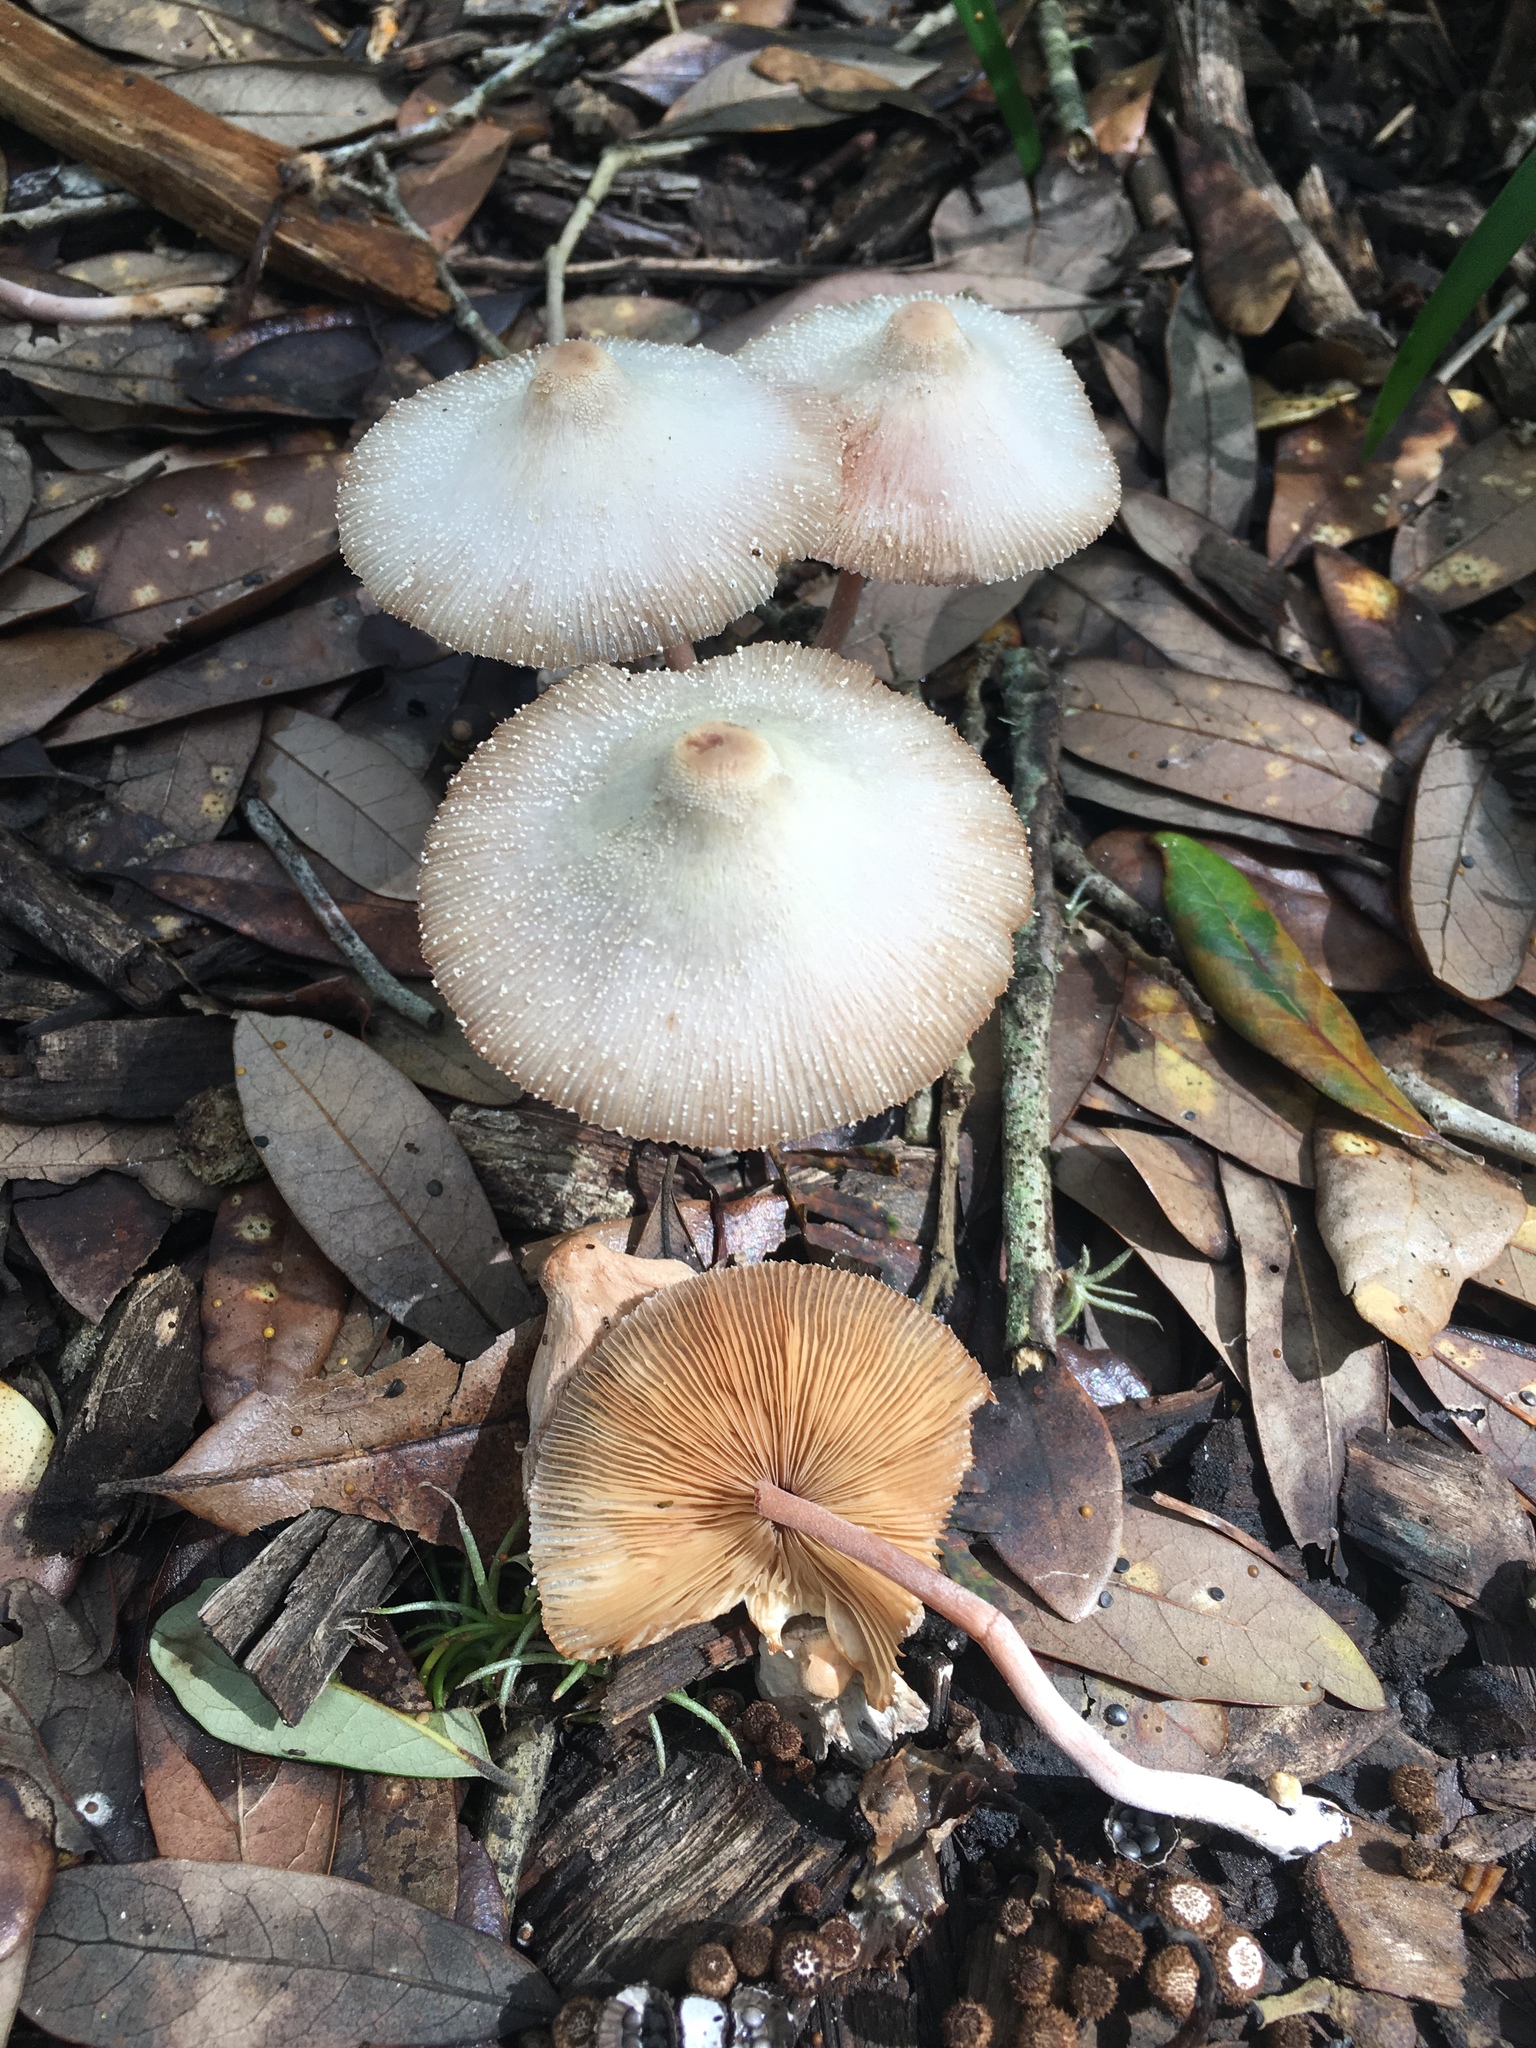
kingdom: Fungi
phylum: Basidiomycota
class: Agaricomycetes
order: Agaricales
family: Agaricaceae
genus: Leucocoprinus
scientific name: Leucocoprinus cepistipes
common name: Onion-stalk parasol
